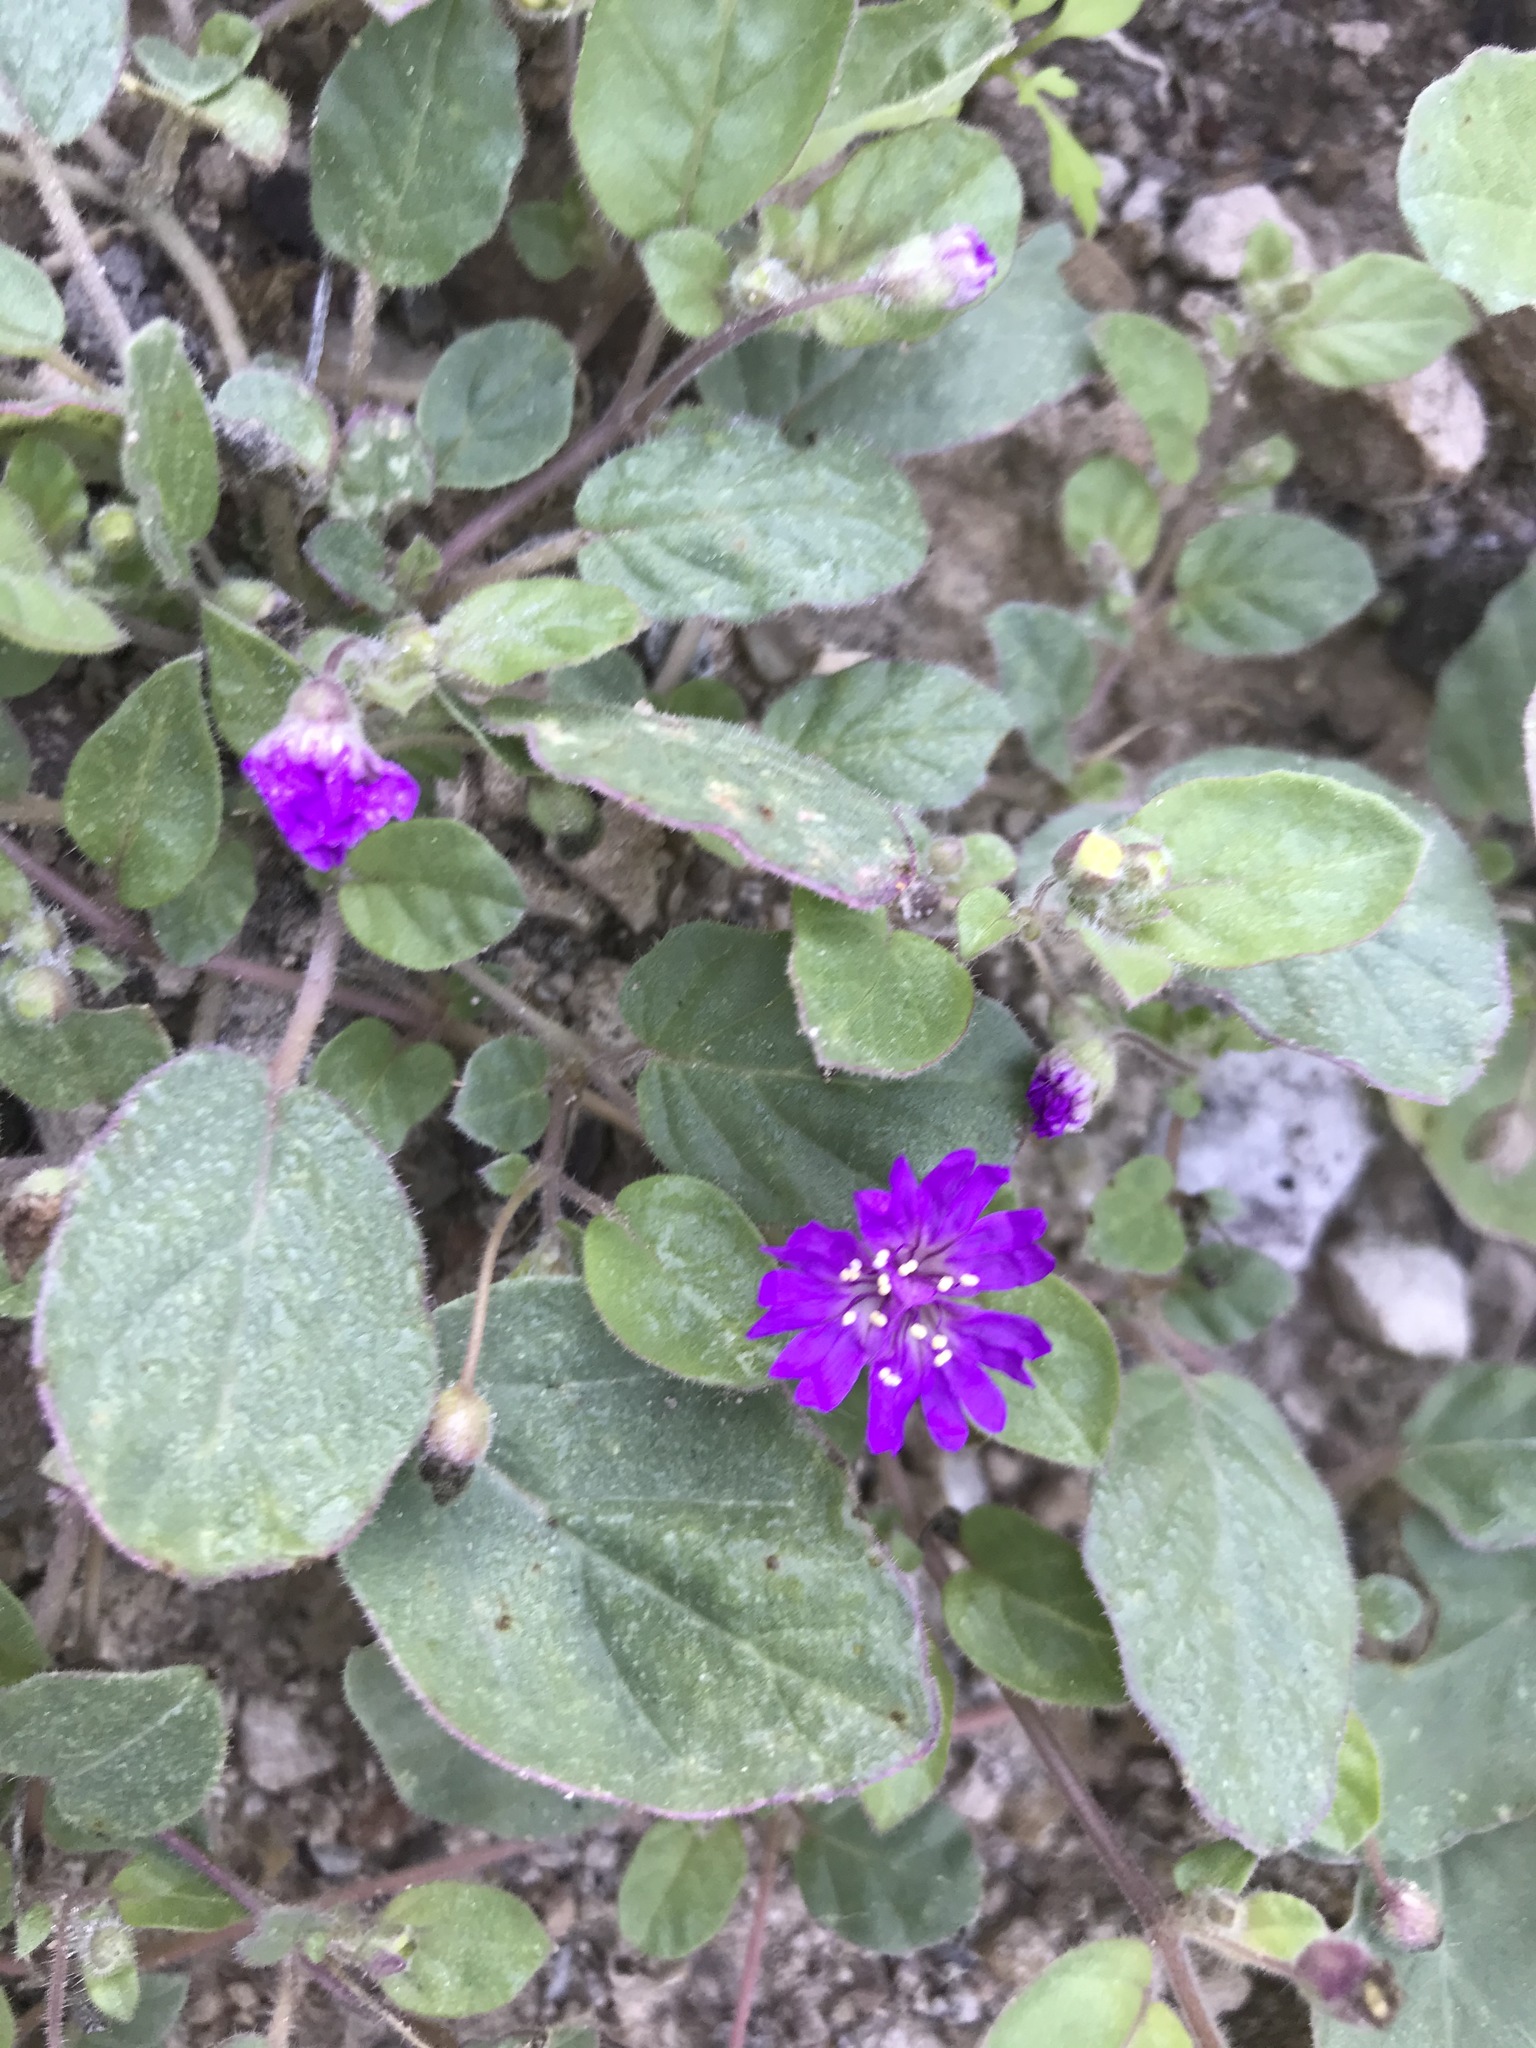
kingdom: Plantae
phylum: Tracheophyta
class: Magnoliopsida
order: Caryophyllales
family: Nyctaginaceae
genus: Allionia
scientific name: Allionia incarnata
